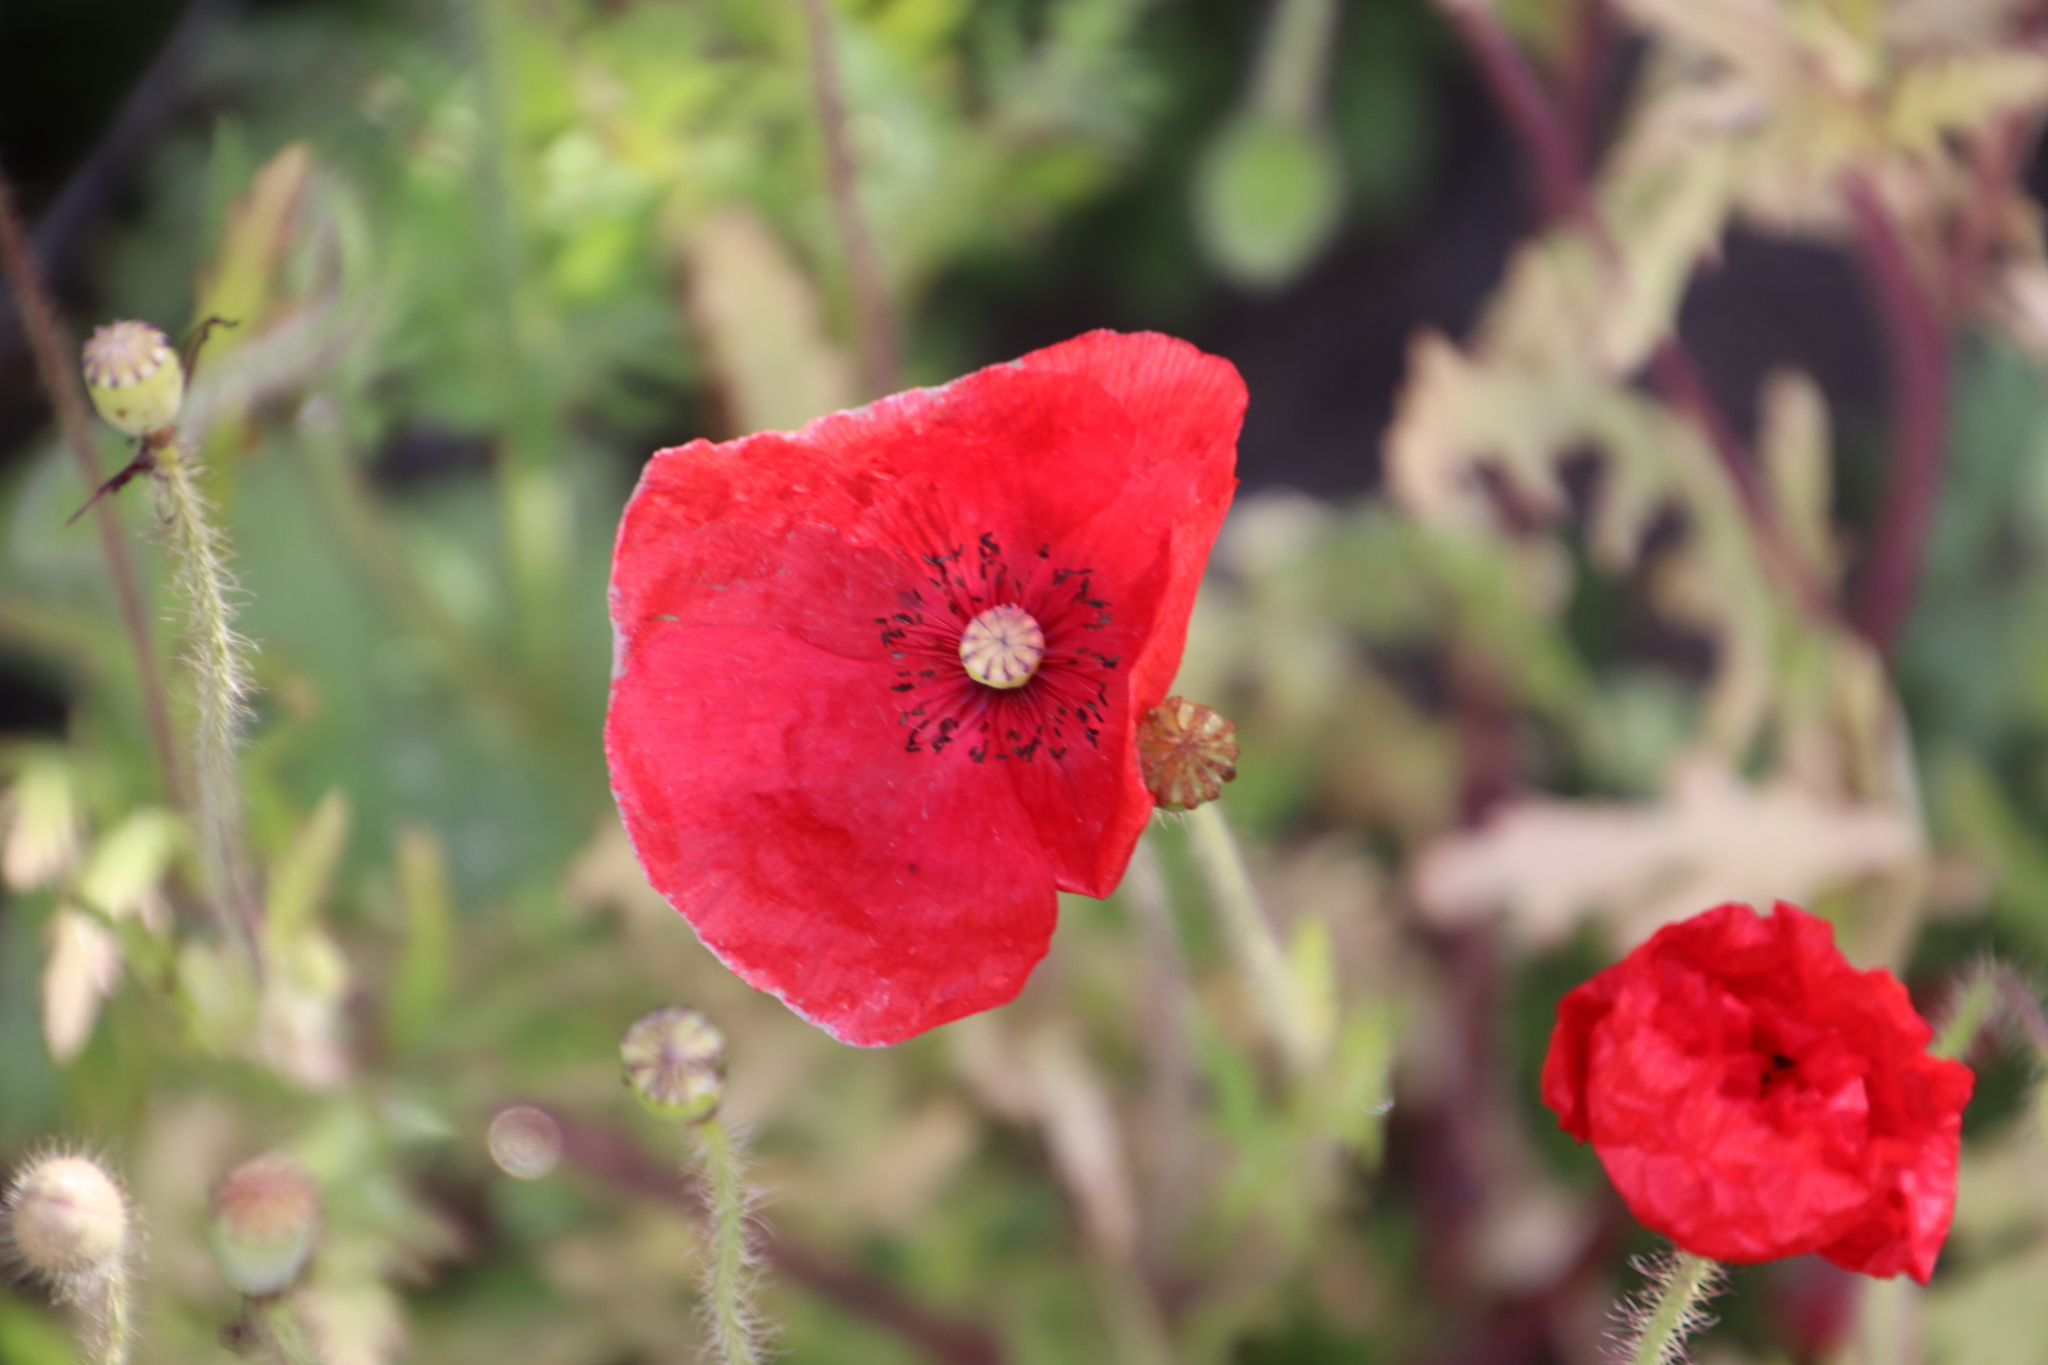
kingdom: Plantae
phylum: Tracheophyta
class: Magnoliopsida
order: Ranunculales
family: Papaveraceae
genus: Papaver
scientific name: Papaver rhoeas
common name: Corn poppy
